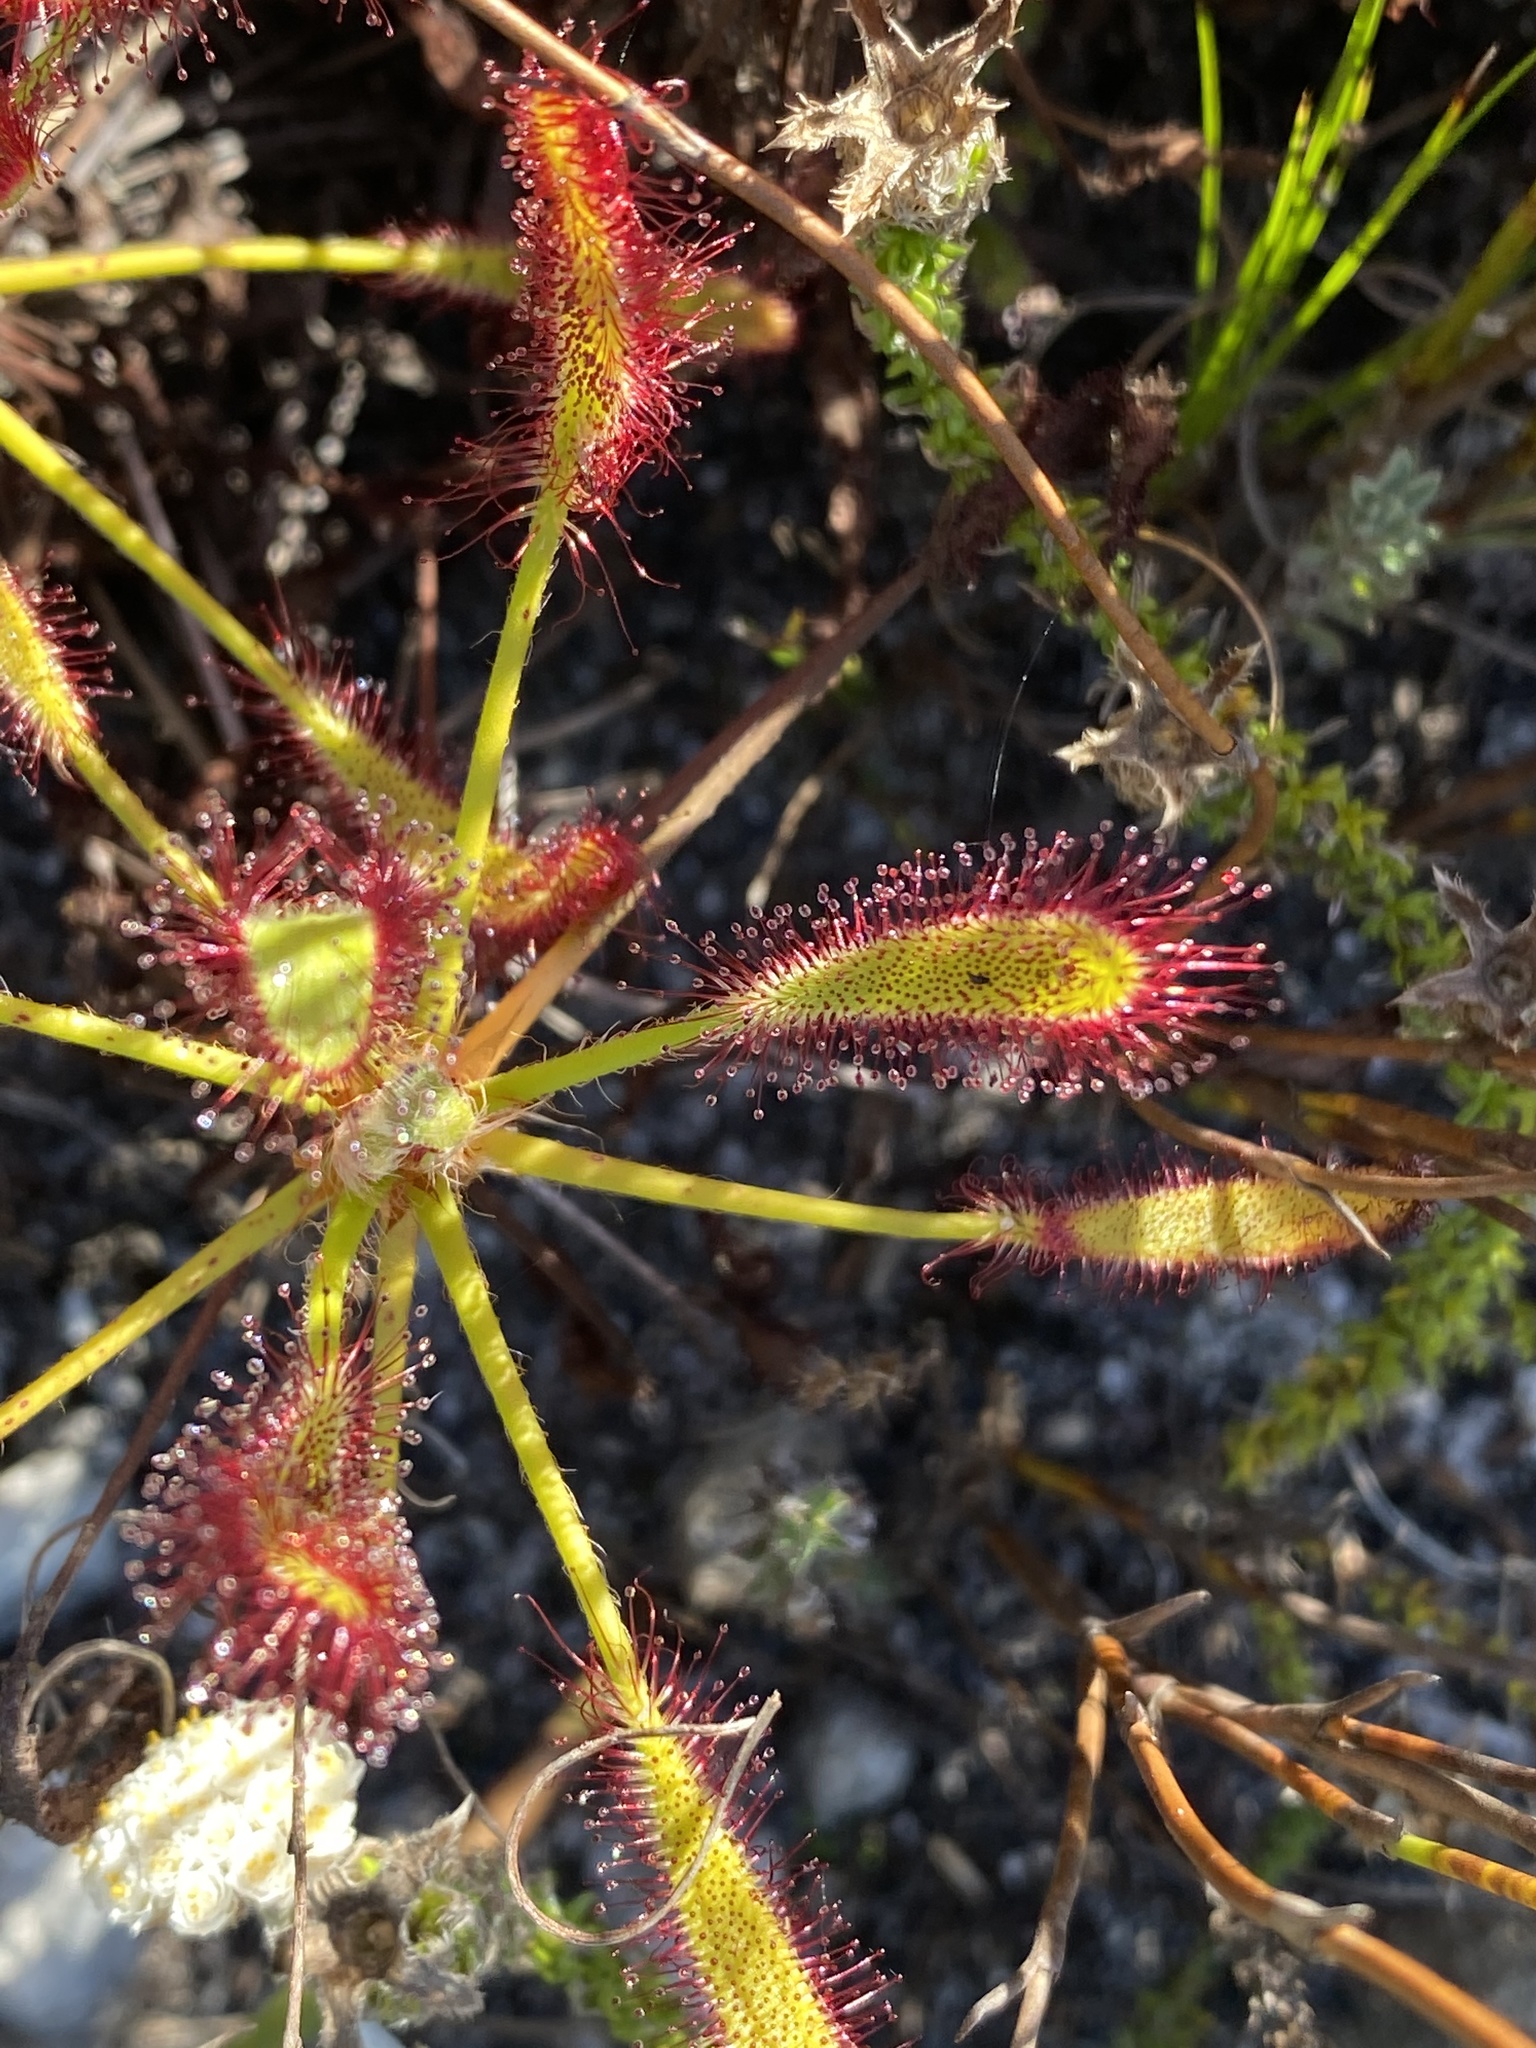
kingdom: Plantae
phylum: Tracheophyta
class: Magnoliopsida
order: Caryophyllales
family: Droseraceae
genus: Drosera
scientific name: Drosera ramentacea
